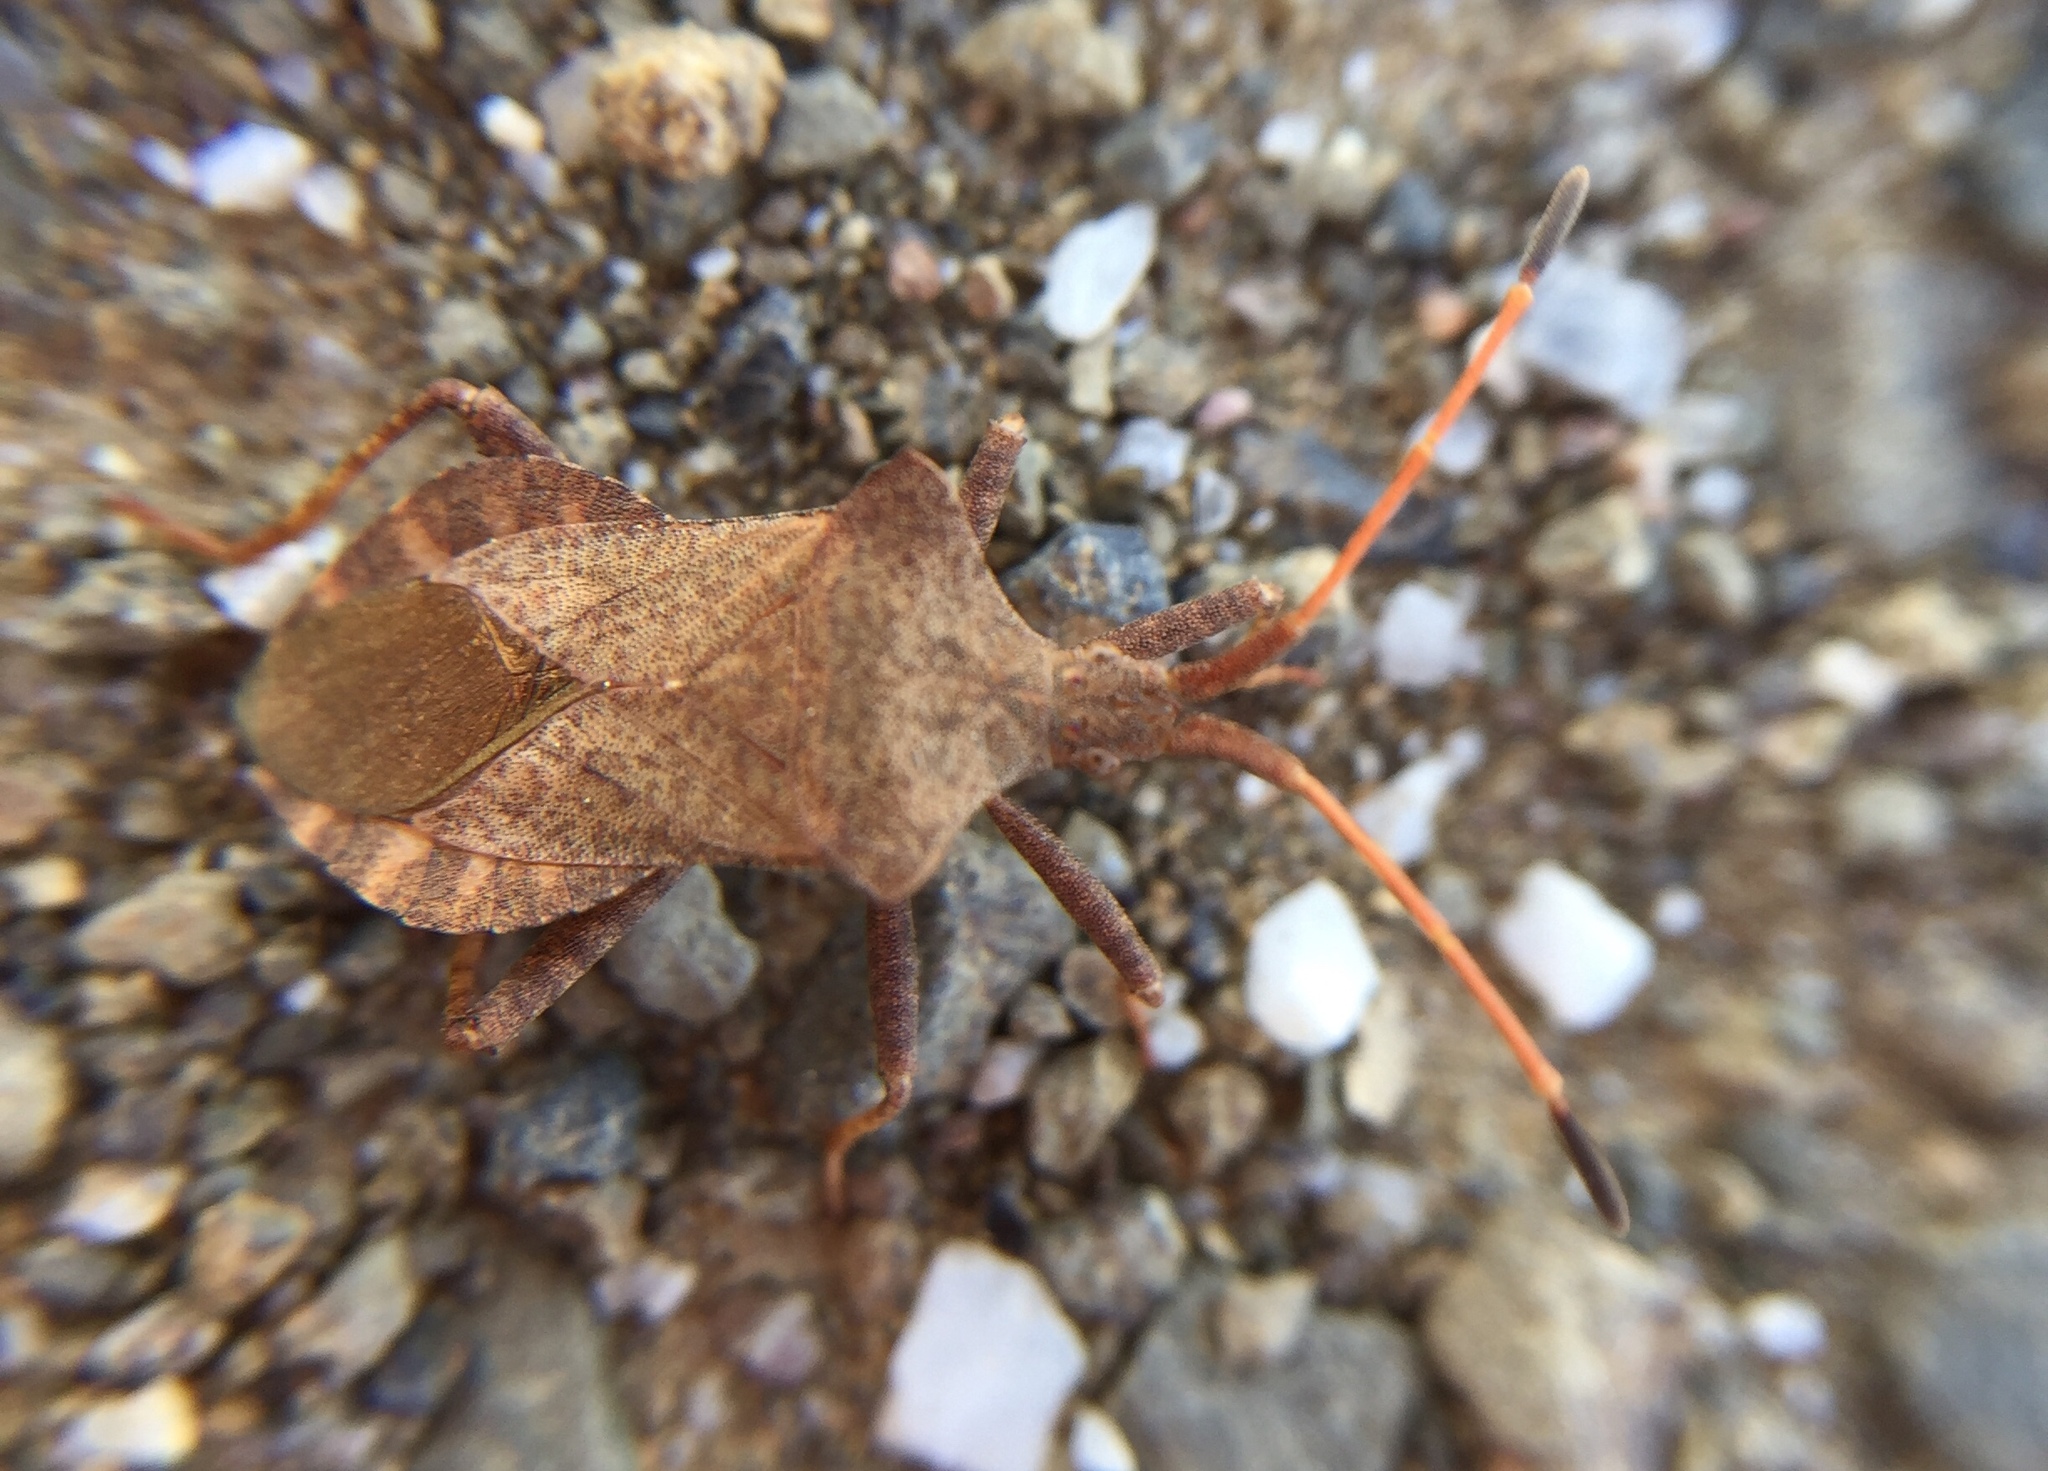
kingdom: Animalia
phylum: Arthropoda
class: Insecta
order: Hemiptera
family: Coreidae
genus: Coreus
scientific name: Coreus marginatus
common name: Dock bug
